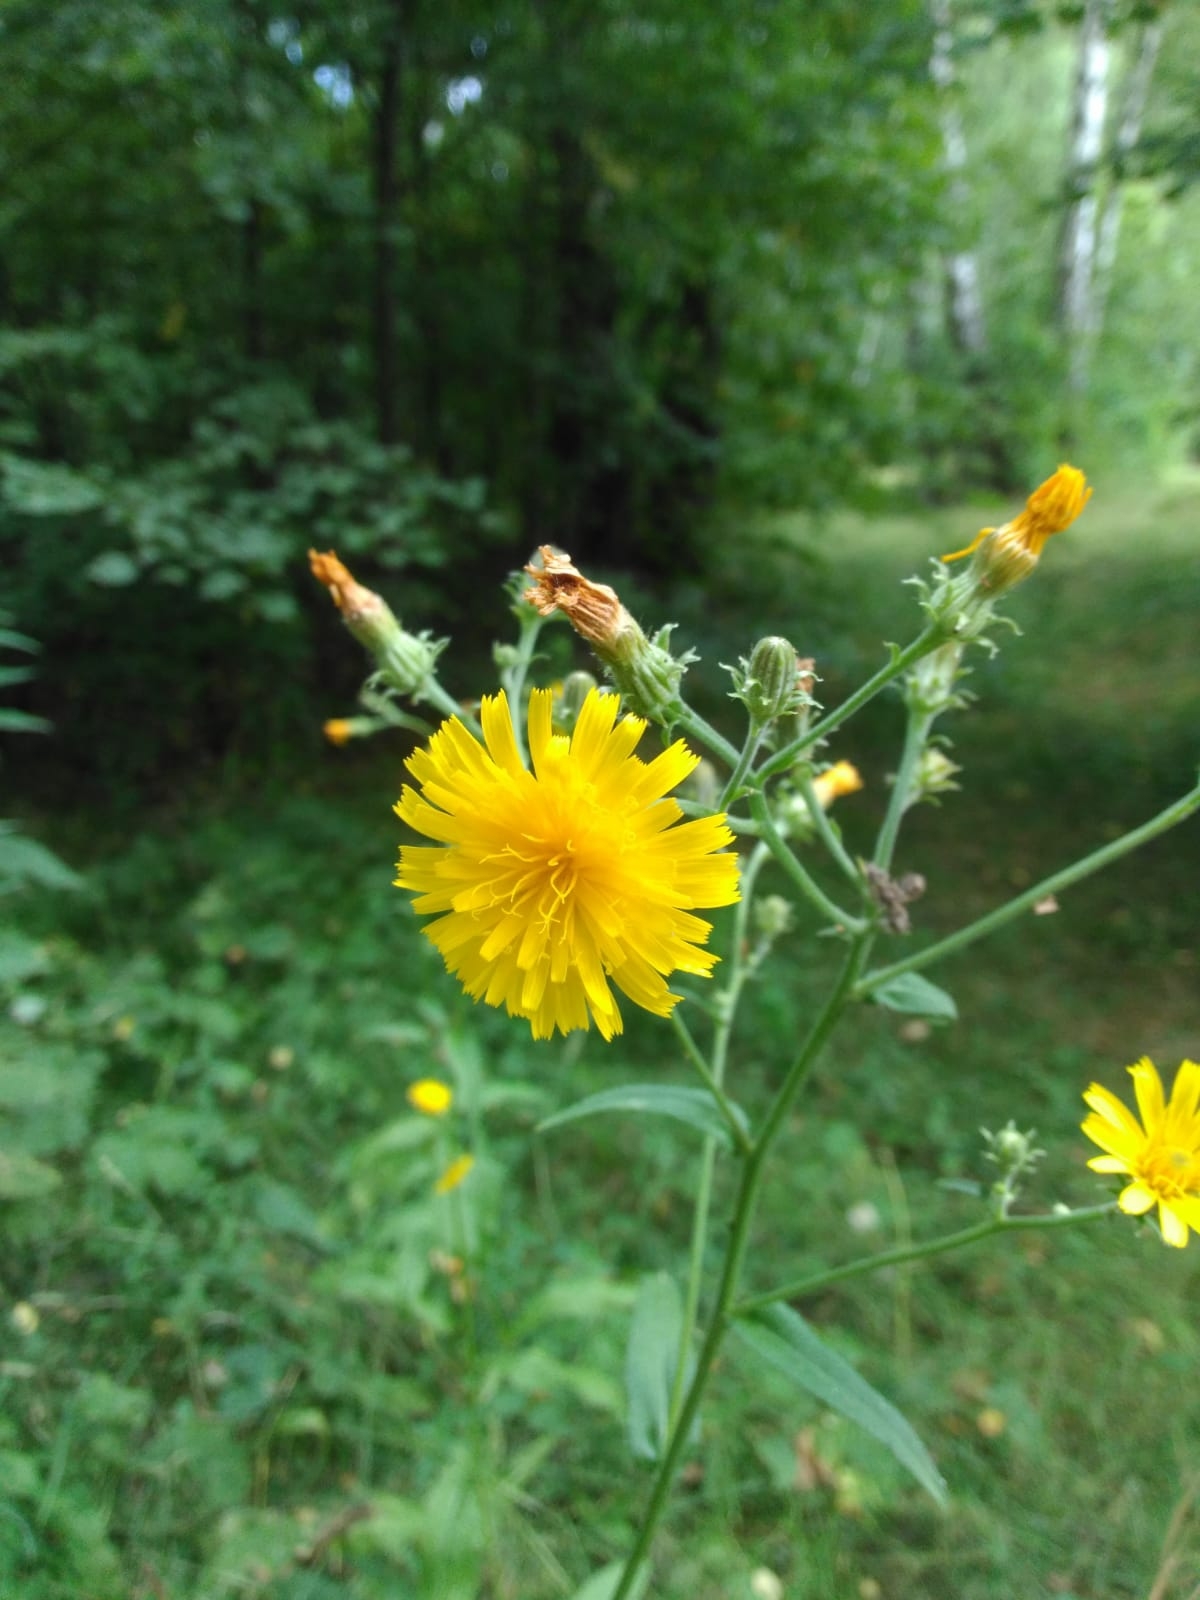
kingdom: Plantae
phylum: Tracheophyta
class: Magnoliopsida
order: Asterales
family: Asteraceae
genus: Picris
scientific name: Picris hieracioides
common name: Hawkweed oxtongue
